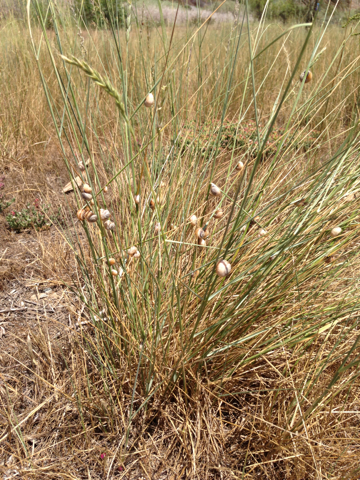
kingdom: Animalia
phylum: Mollusca
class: Gastropoda
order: Stylommatophora
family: Helicidae
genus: Theba
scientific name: Theba pisana
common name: White snail
